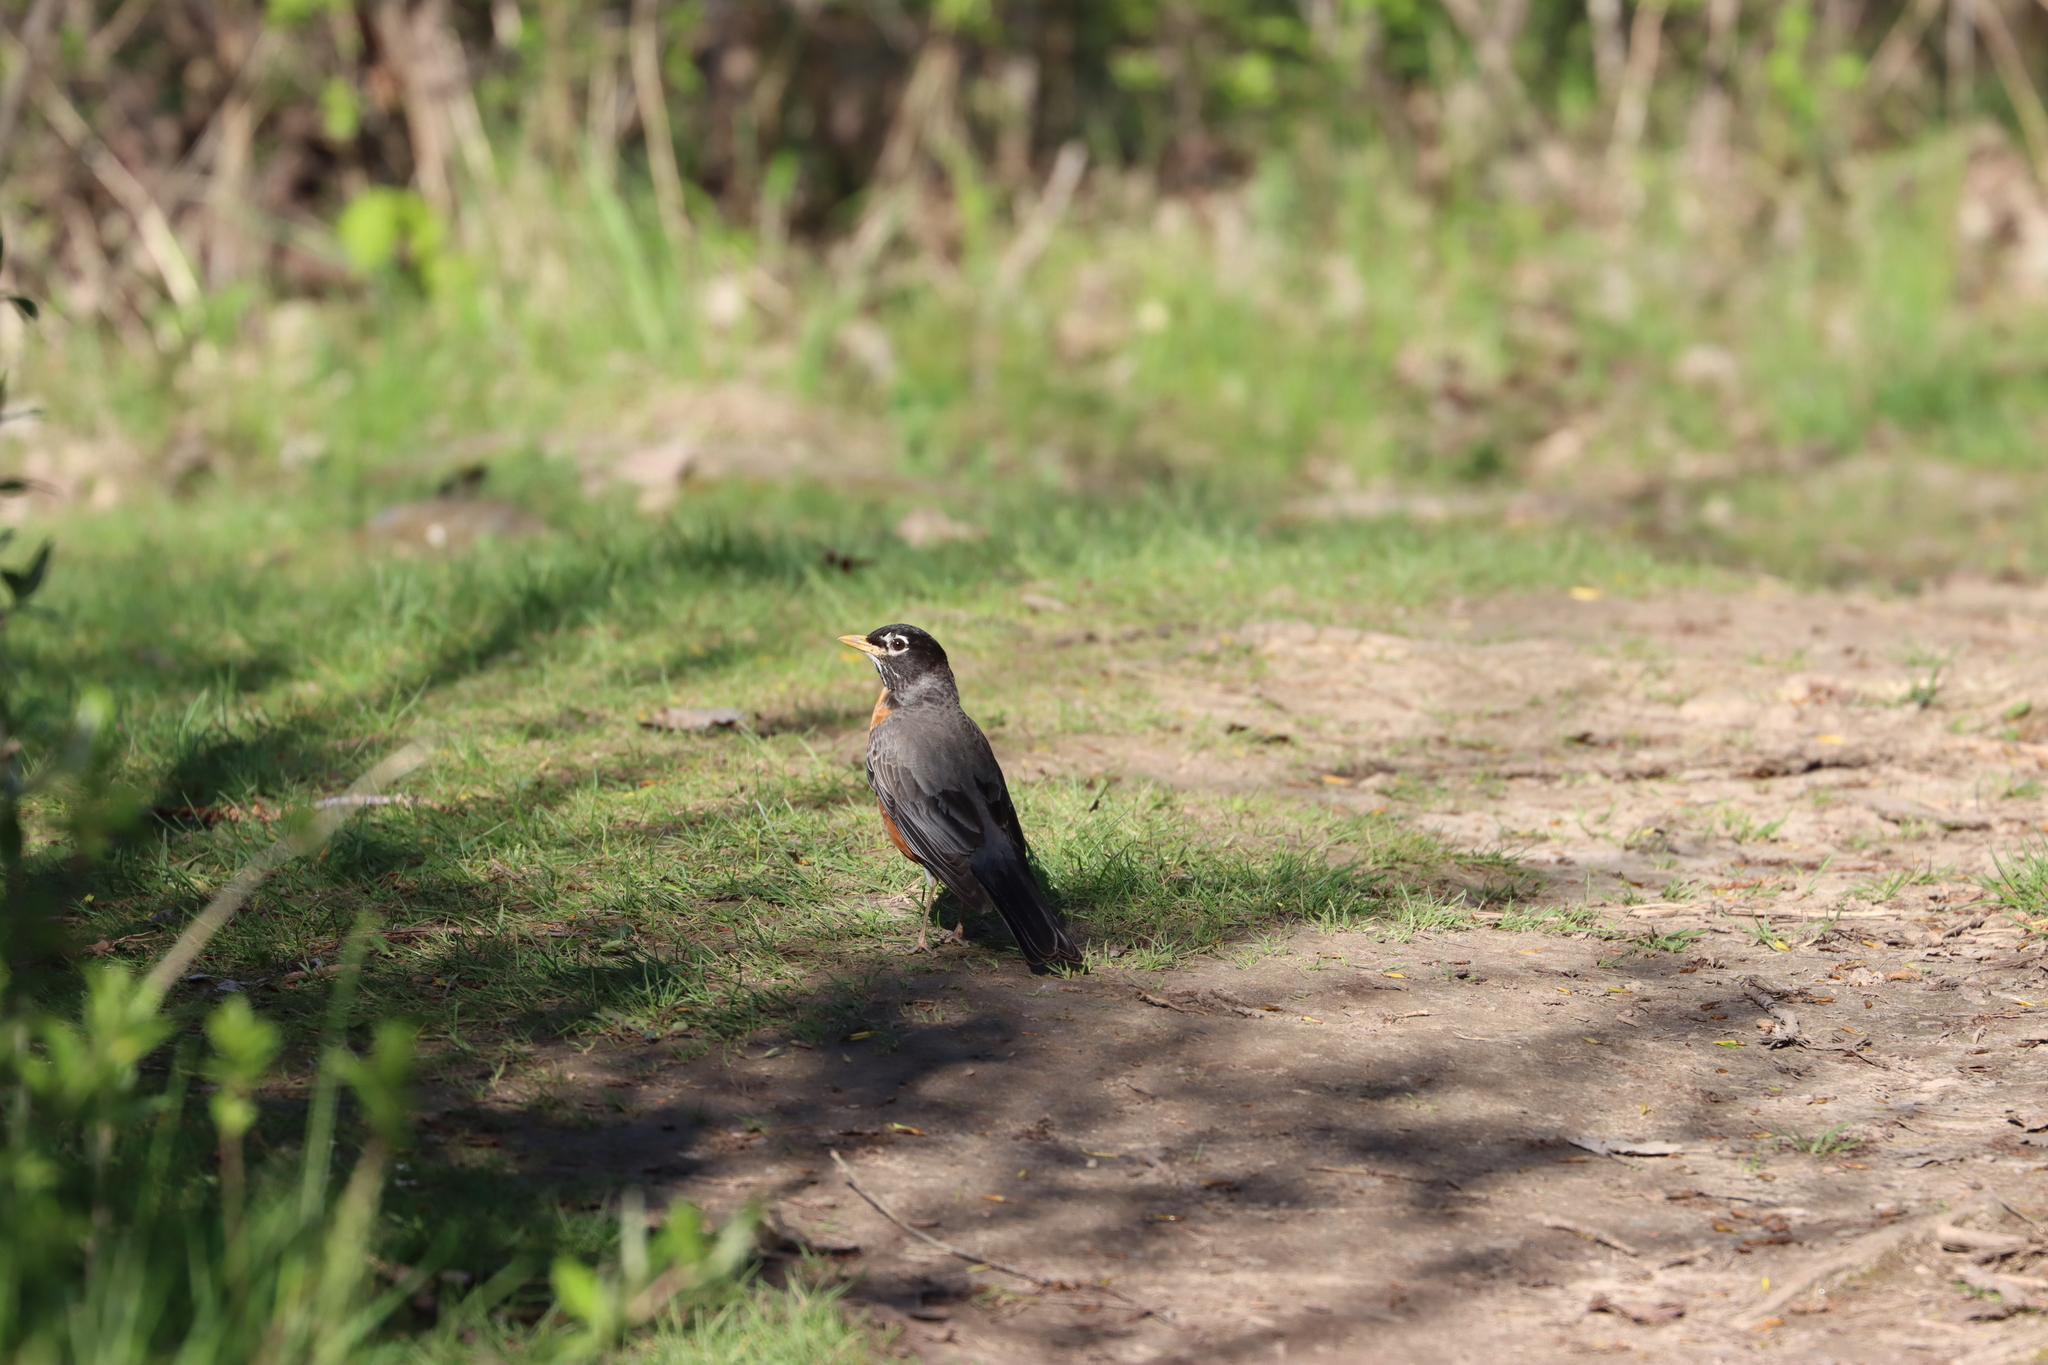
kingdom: Animalia
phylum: Chordata
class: Aves
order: Passeriformes
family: Turdidae
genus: Turdus
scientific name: Turdus migratorius
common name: American robin
